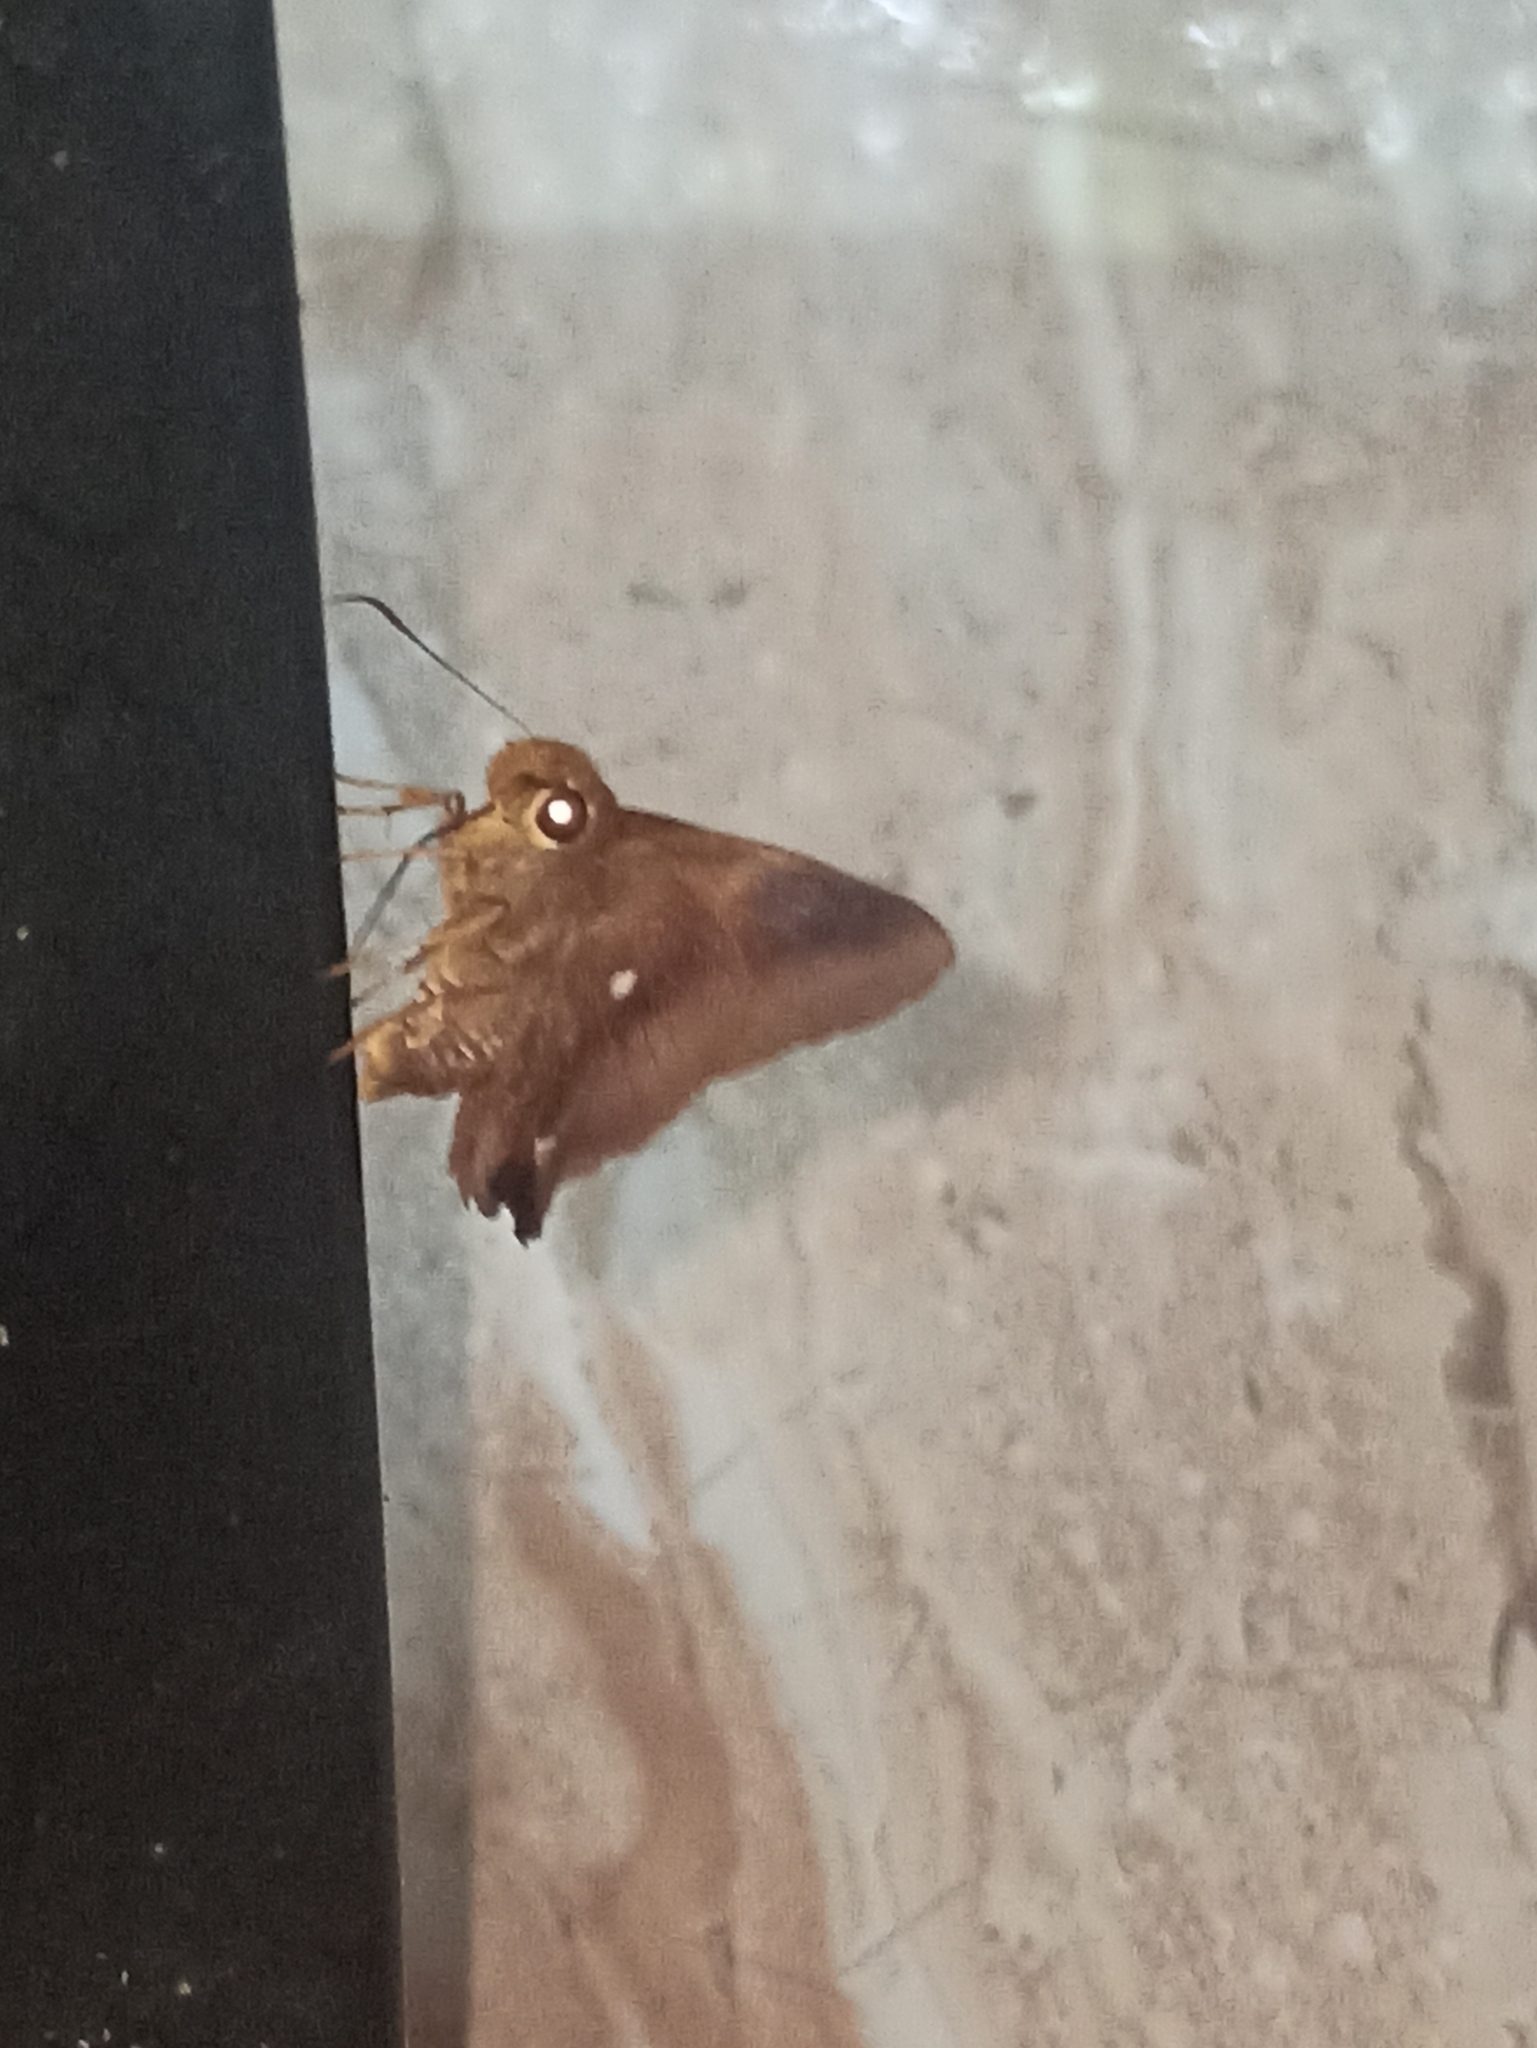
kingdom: Animalia
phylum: Arthropoda
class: Insecta
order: Lepidoptera
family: Hesperiidae
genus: Hasora
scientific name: Hasora badra
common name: Common awl
